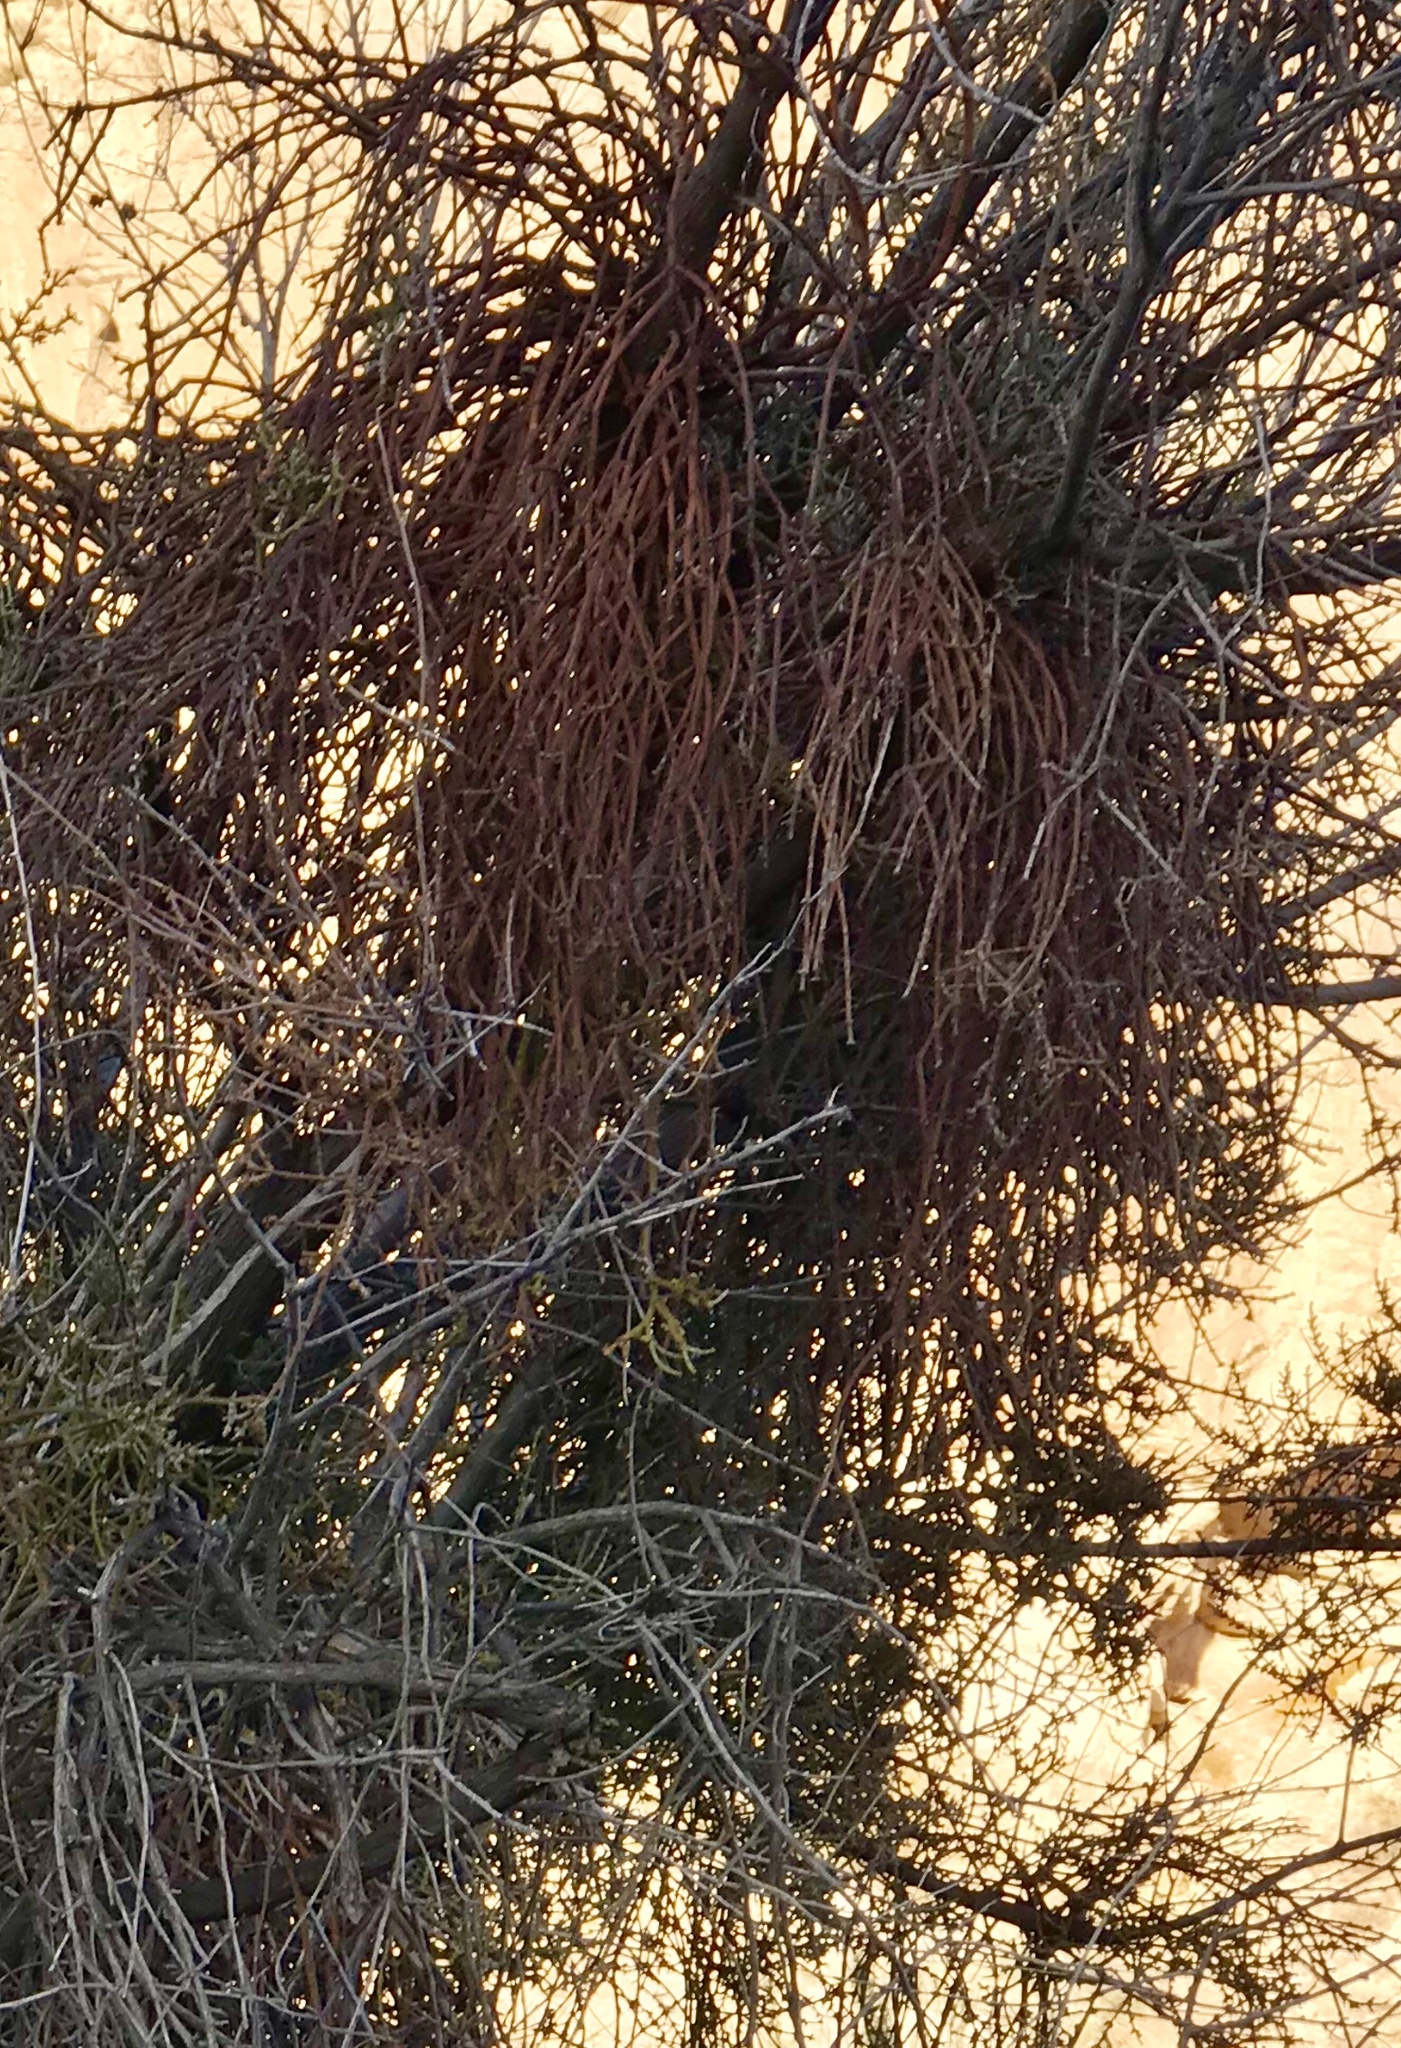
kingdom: Plantae
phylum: Tracheophyta
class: Magnoliopsida
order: Santalales
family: Viscaceae
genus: Phoradendron
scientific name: Phoradendron californicum
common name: Acacia mistletoe
